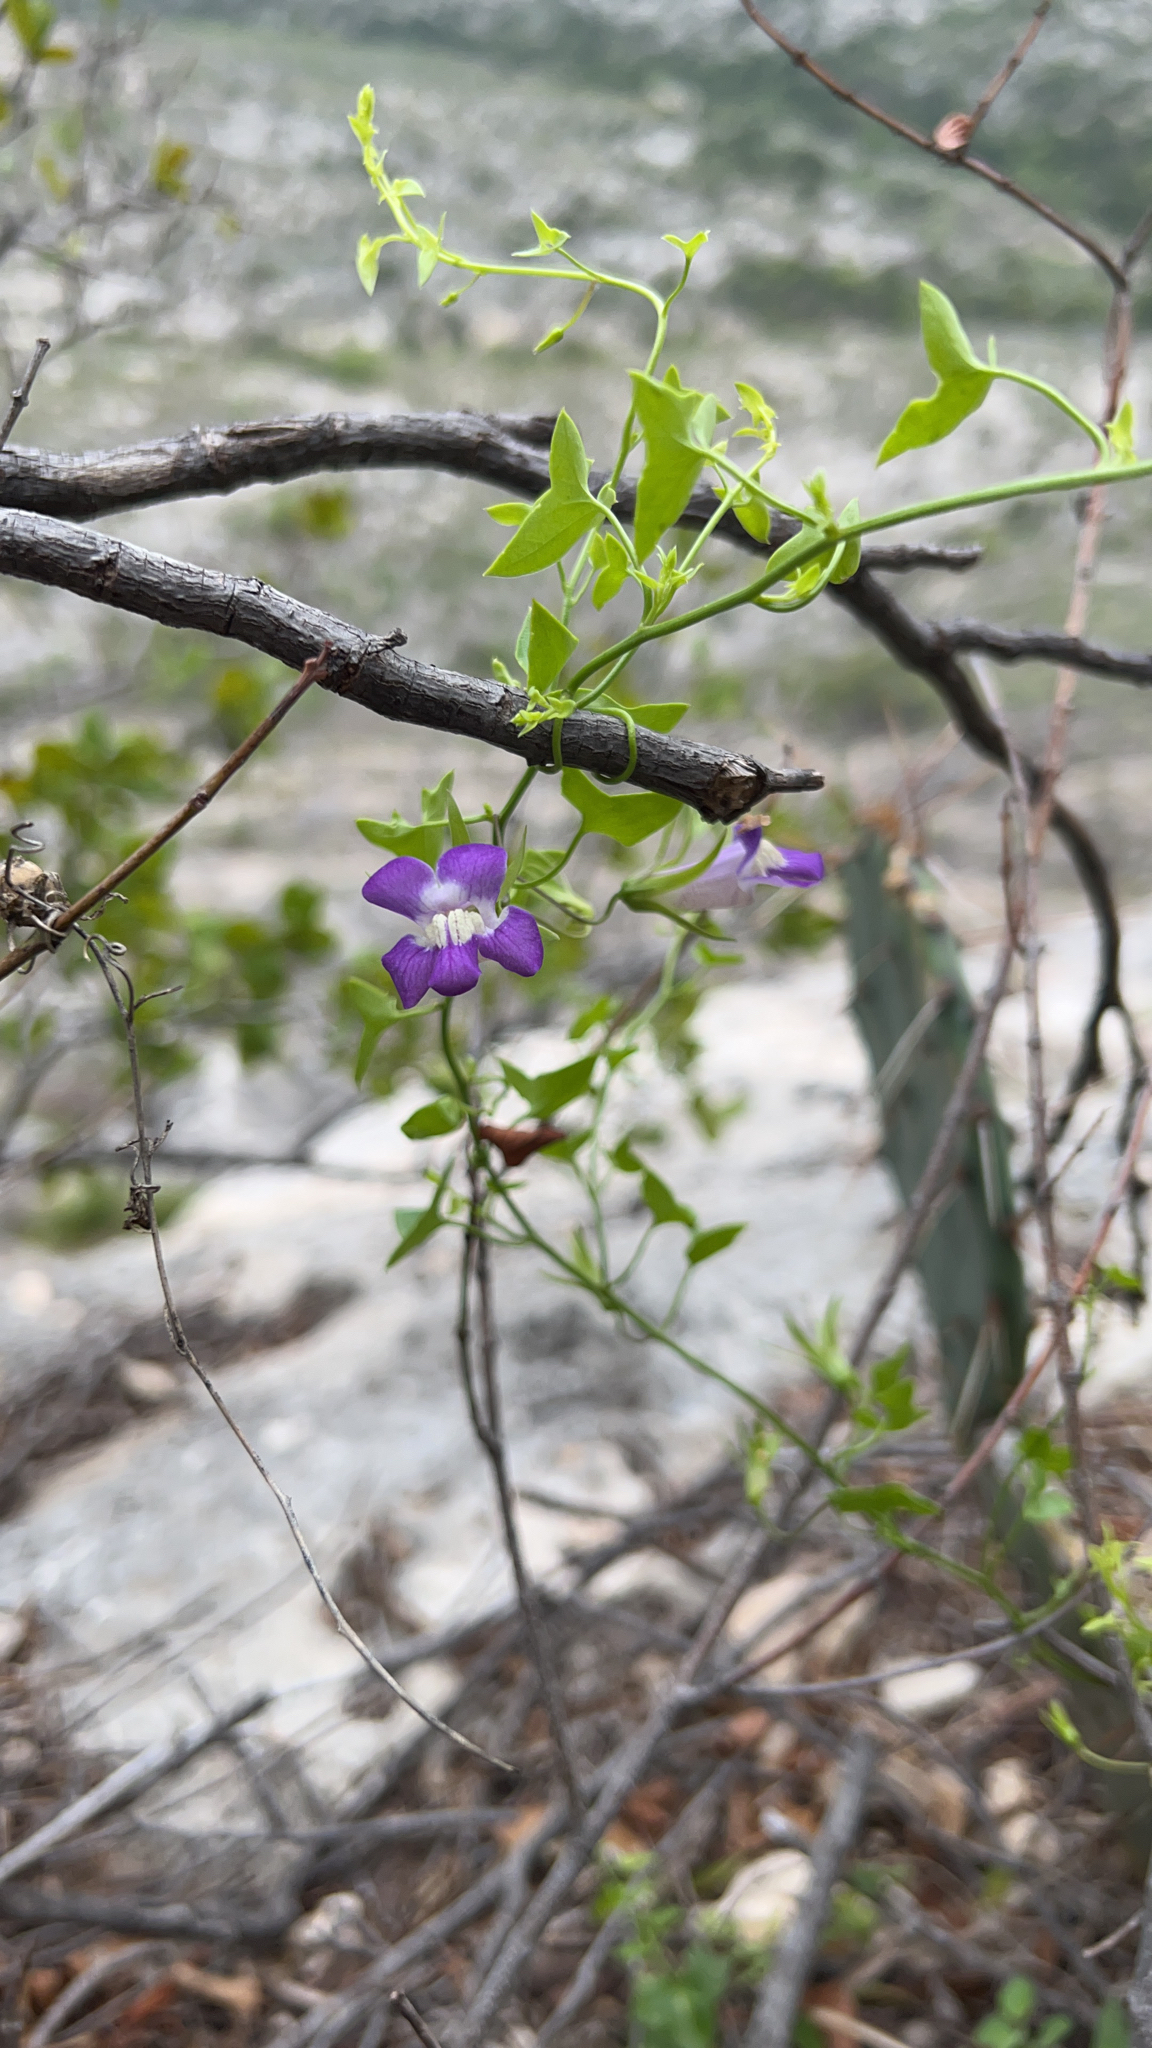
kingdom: Plantae
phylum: Tracheophyta
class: Magnoliopsida
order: Lamiales
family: Plantaginaceae
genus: Maurandella
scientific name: Maurandella antirrhiniflora
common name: Violet twining-snapdragon
